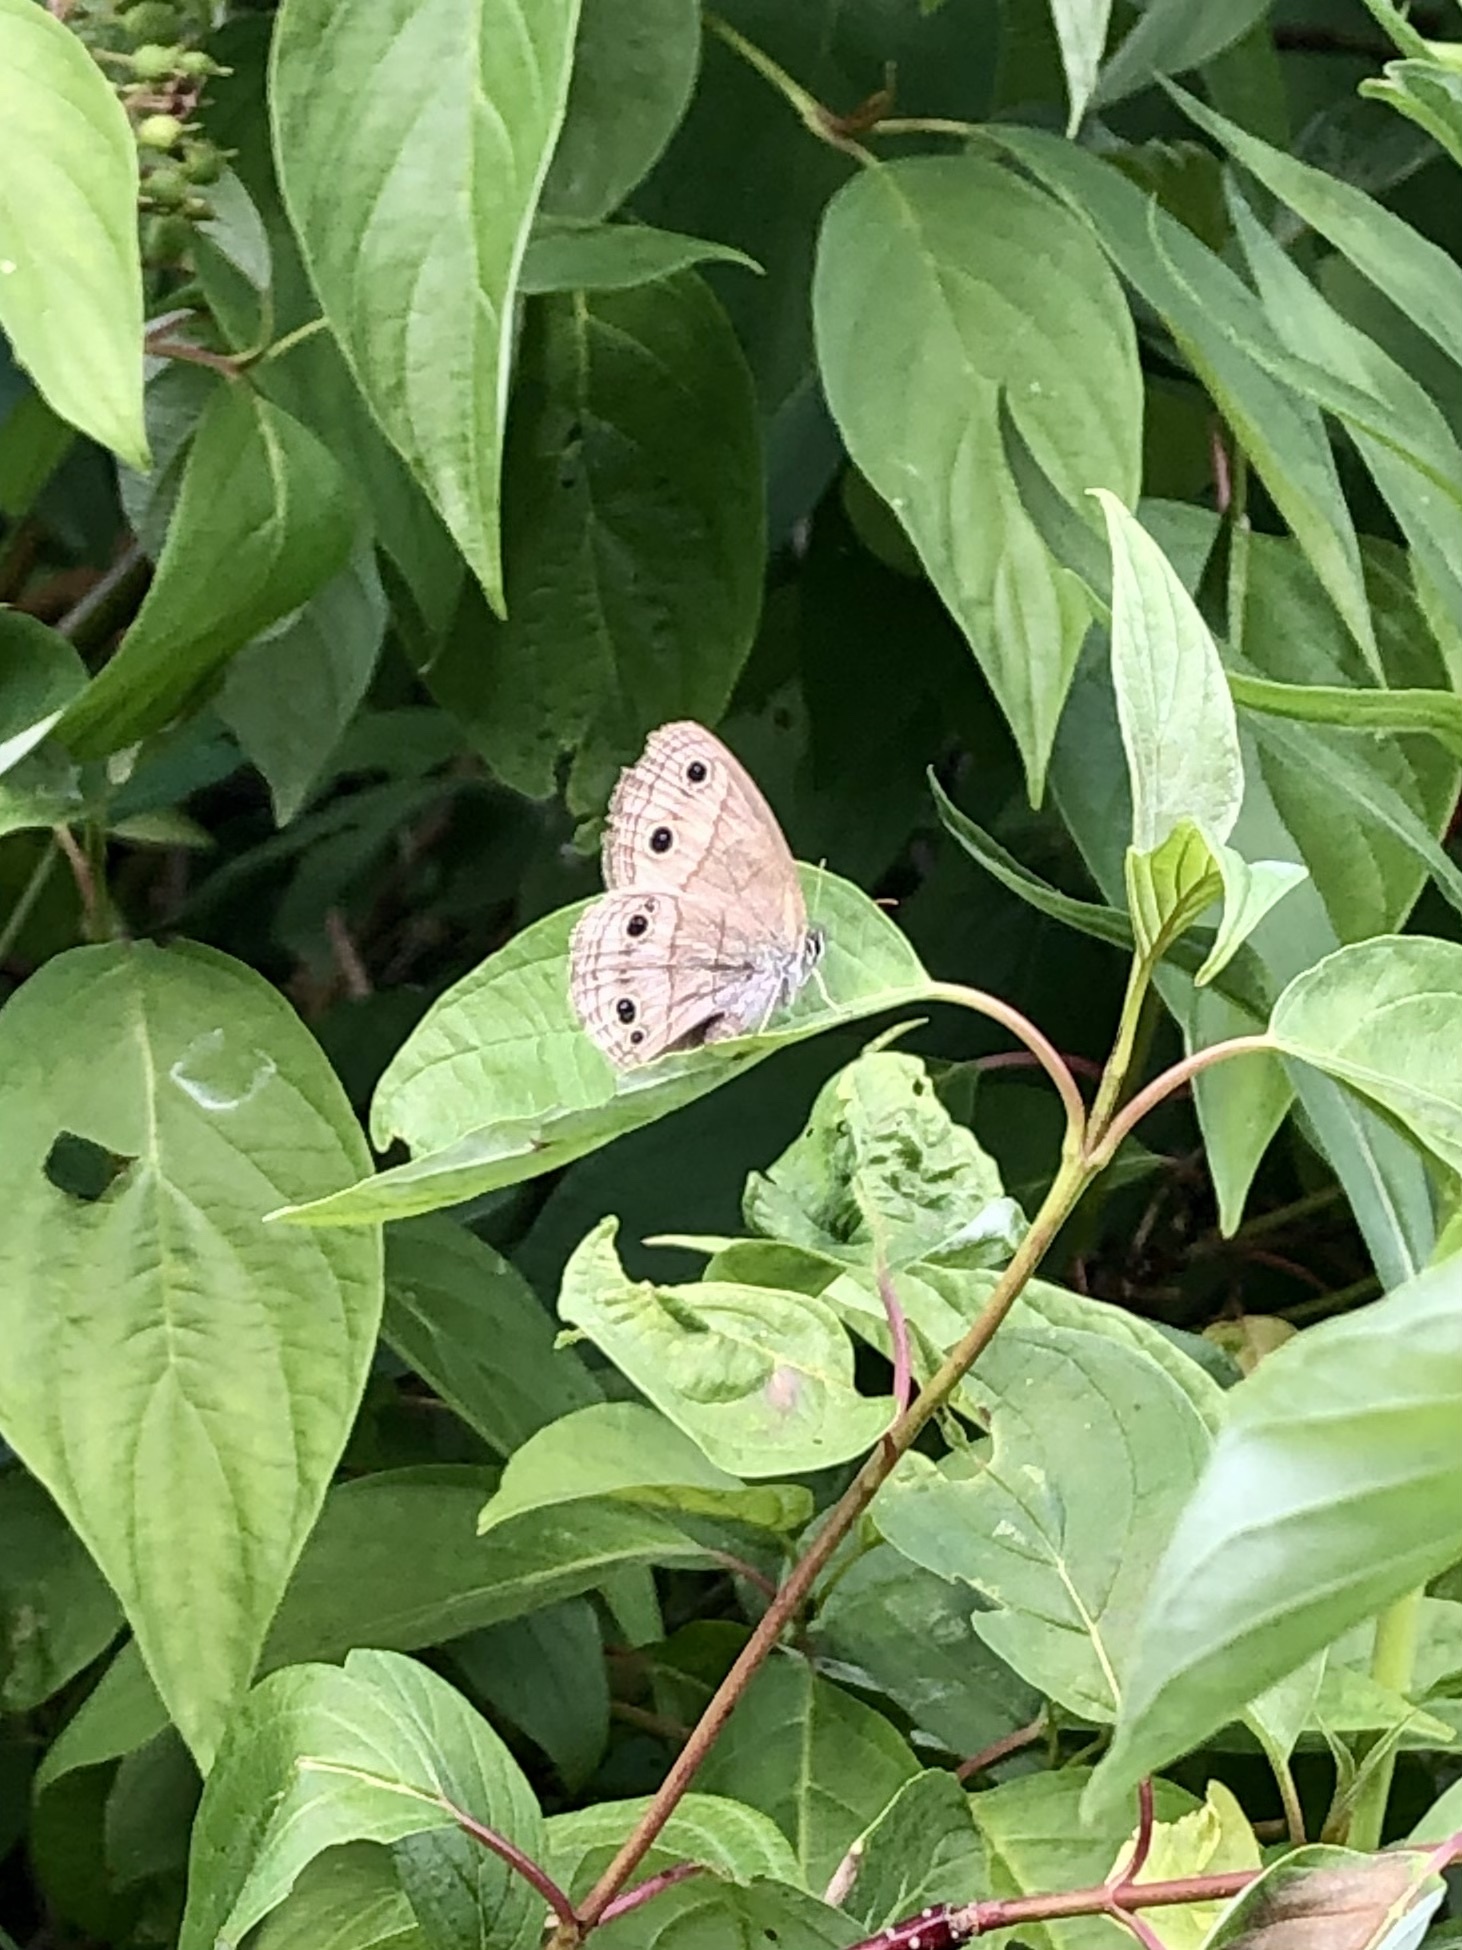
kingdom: Animalia
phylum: Arthropoda
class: Insecta
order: Lepidoptera
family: Nymphalidae
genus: Euptychia
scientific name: Euptychia cymela
